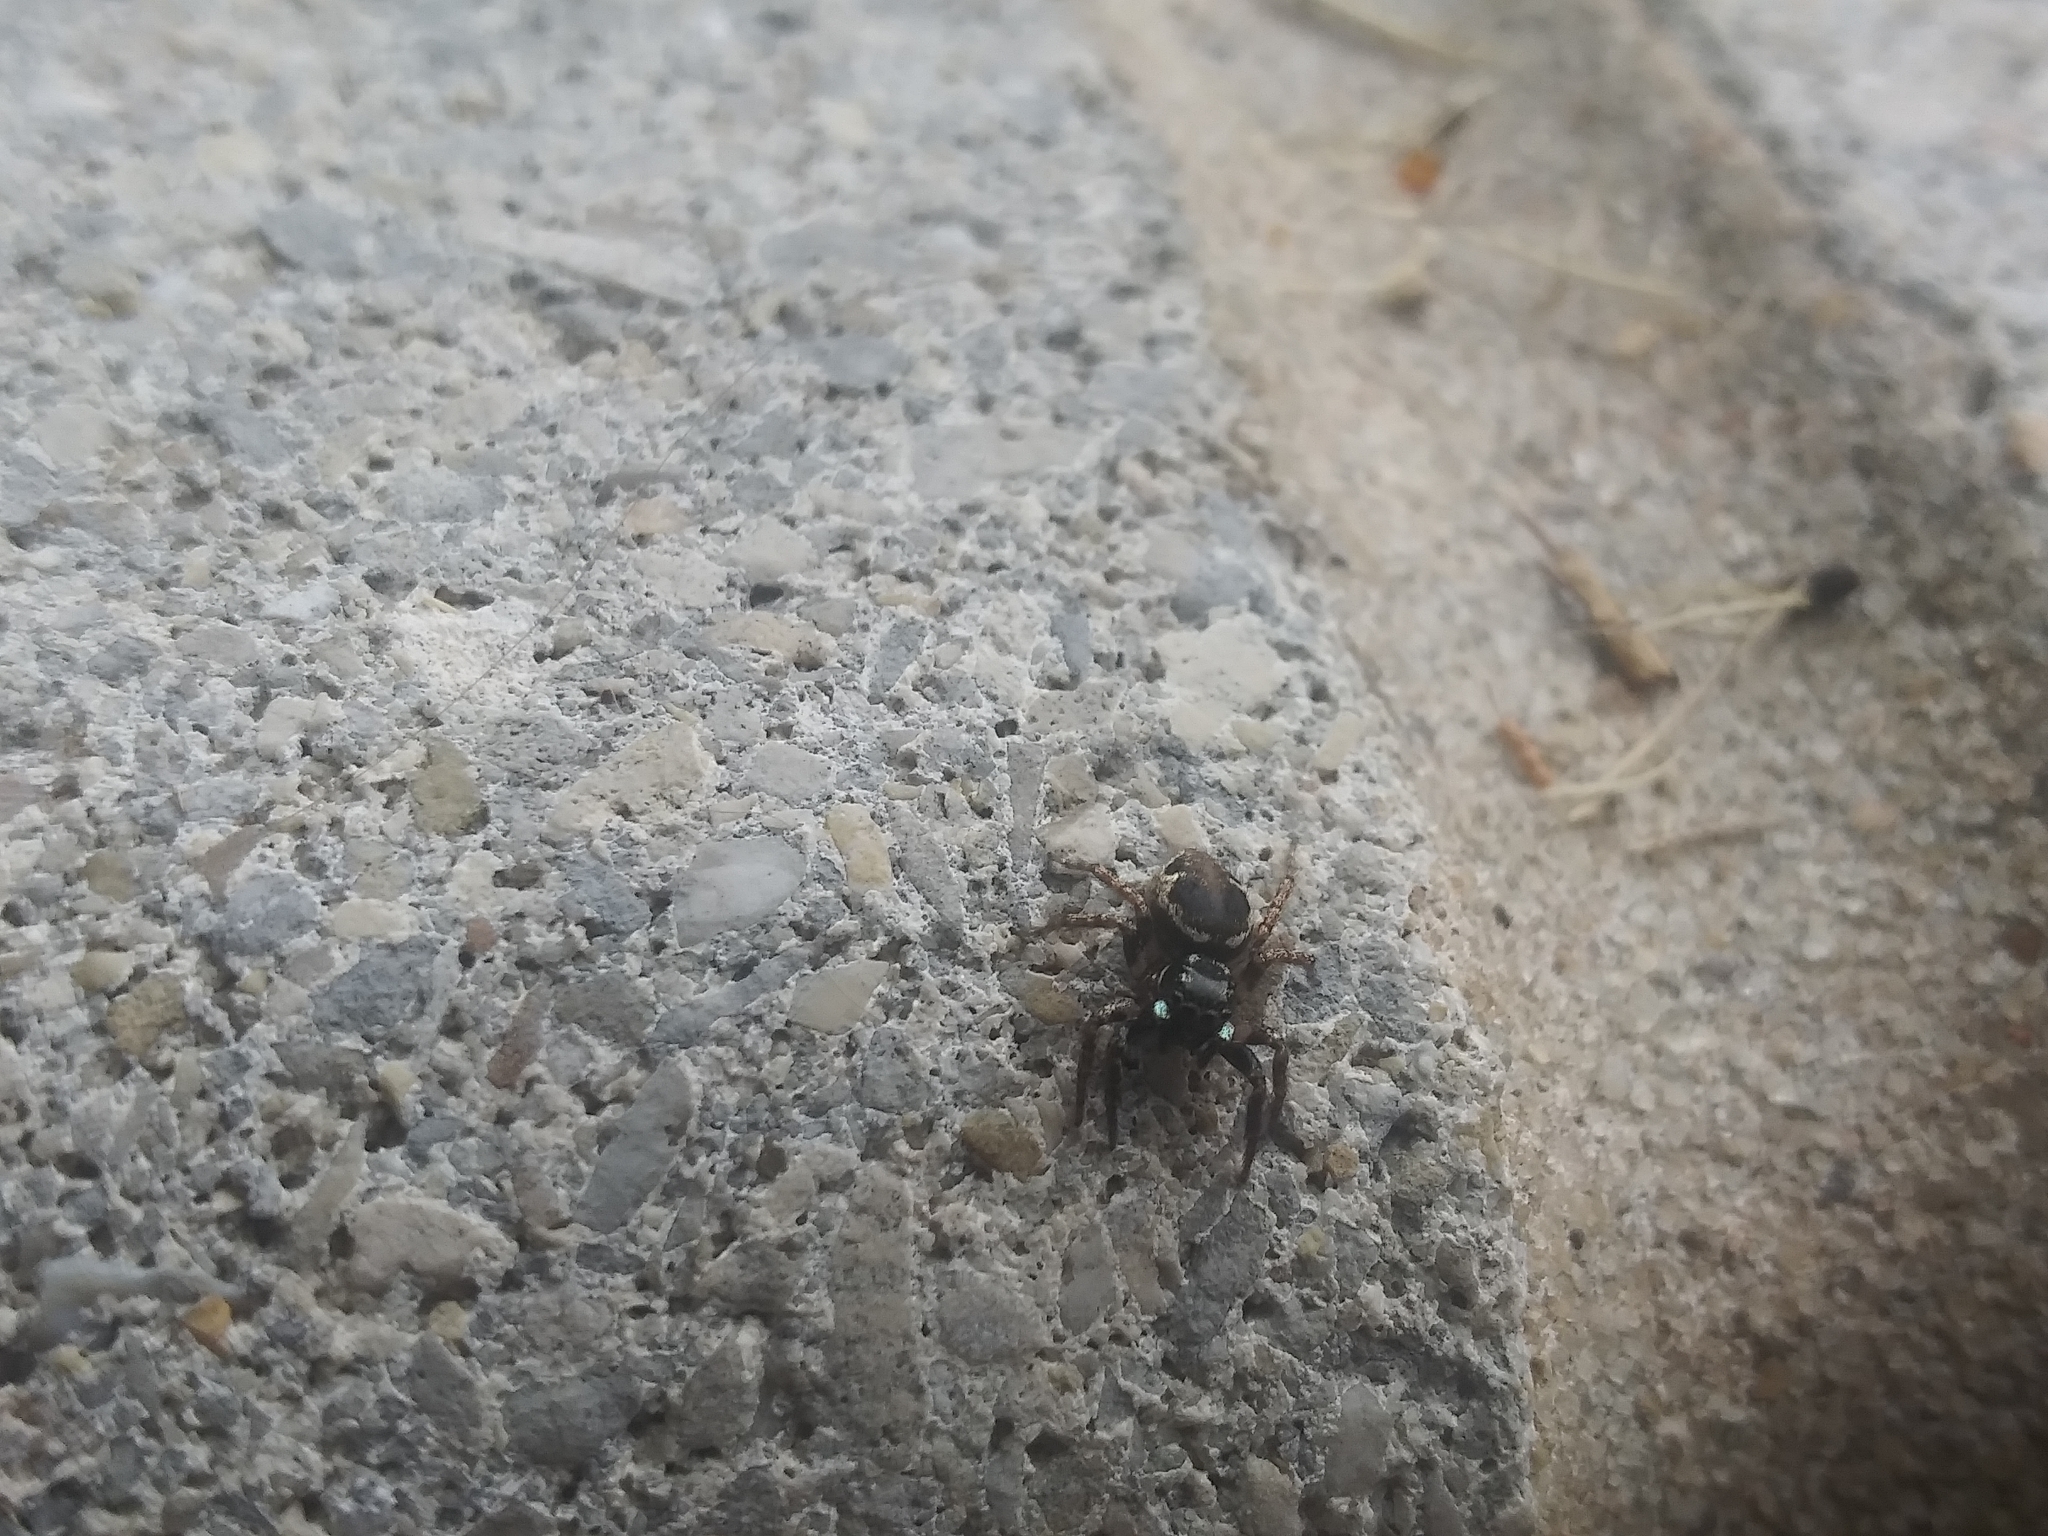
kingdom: Animalia
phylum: Arthropoda
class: Arachnida
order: Araneae
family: Salticidae
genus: Anasaitis
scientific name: Anasaitis canosa
